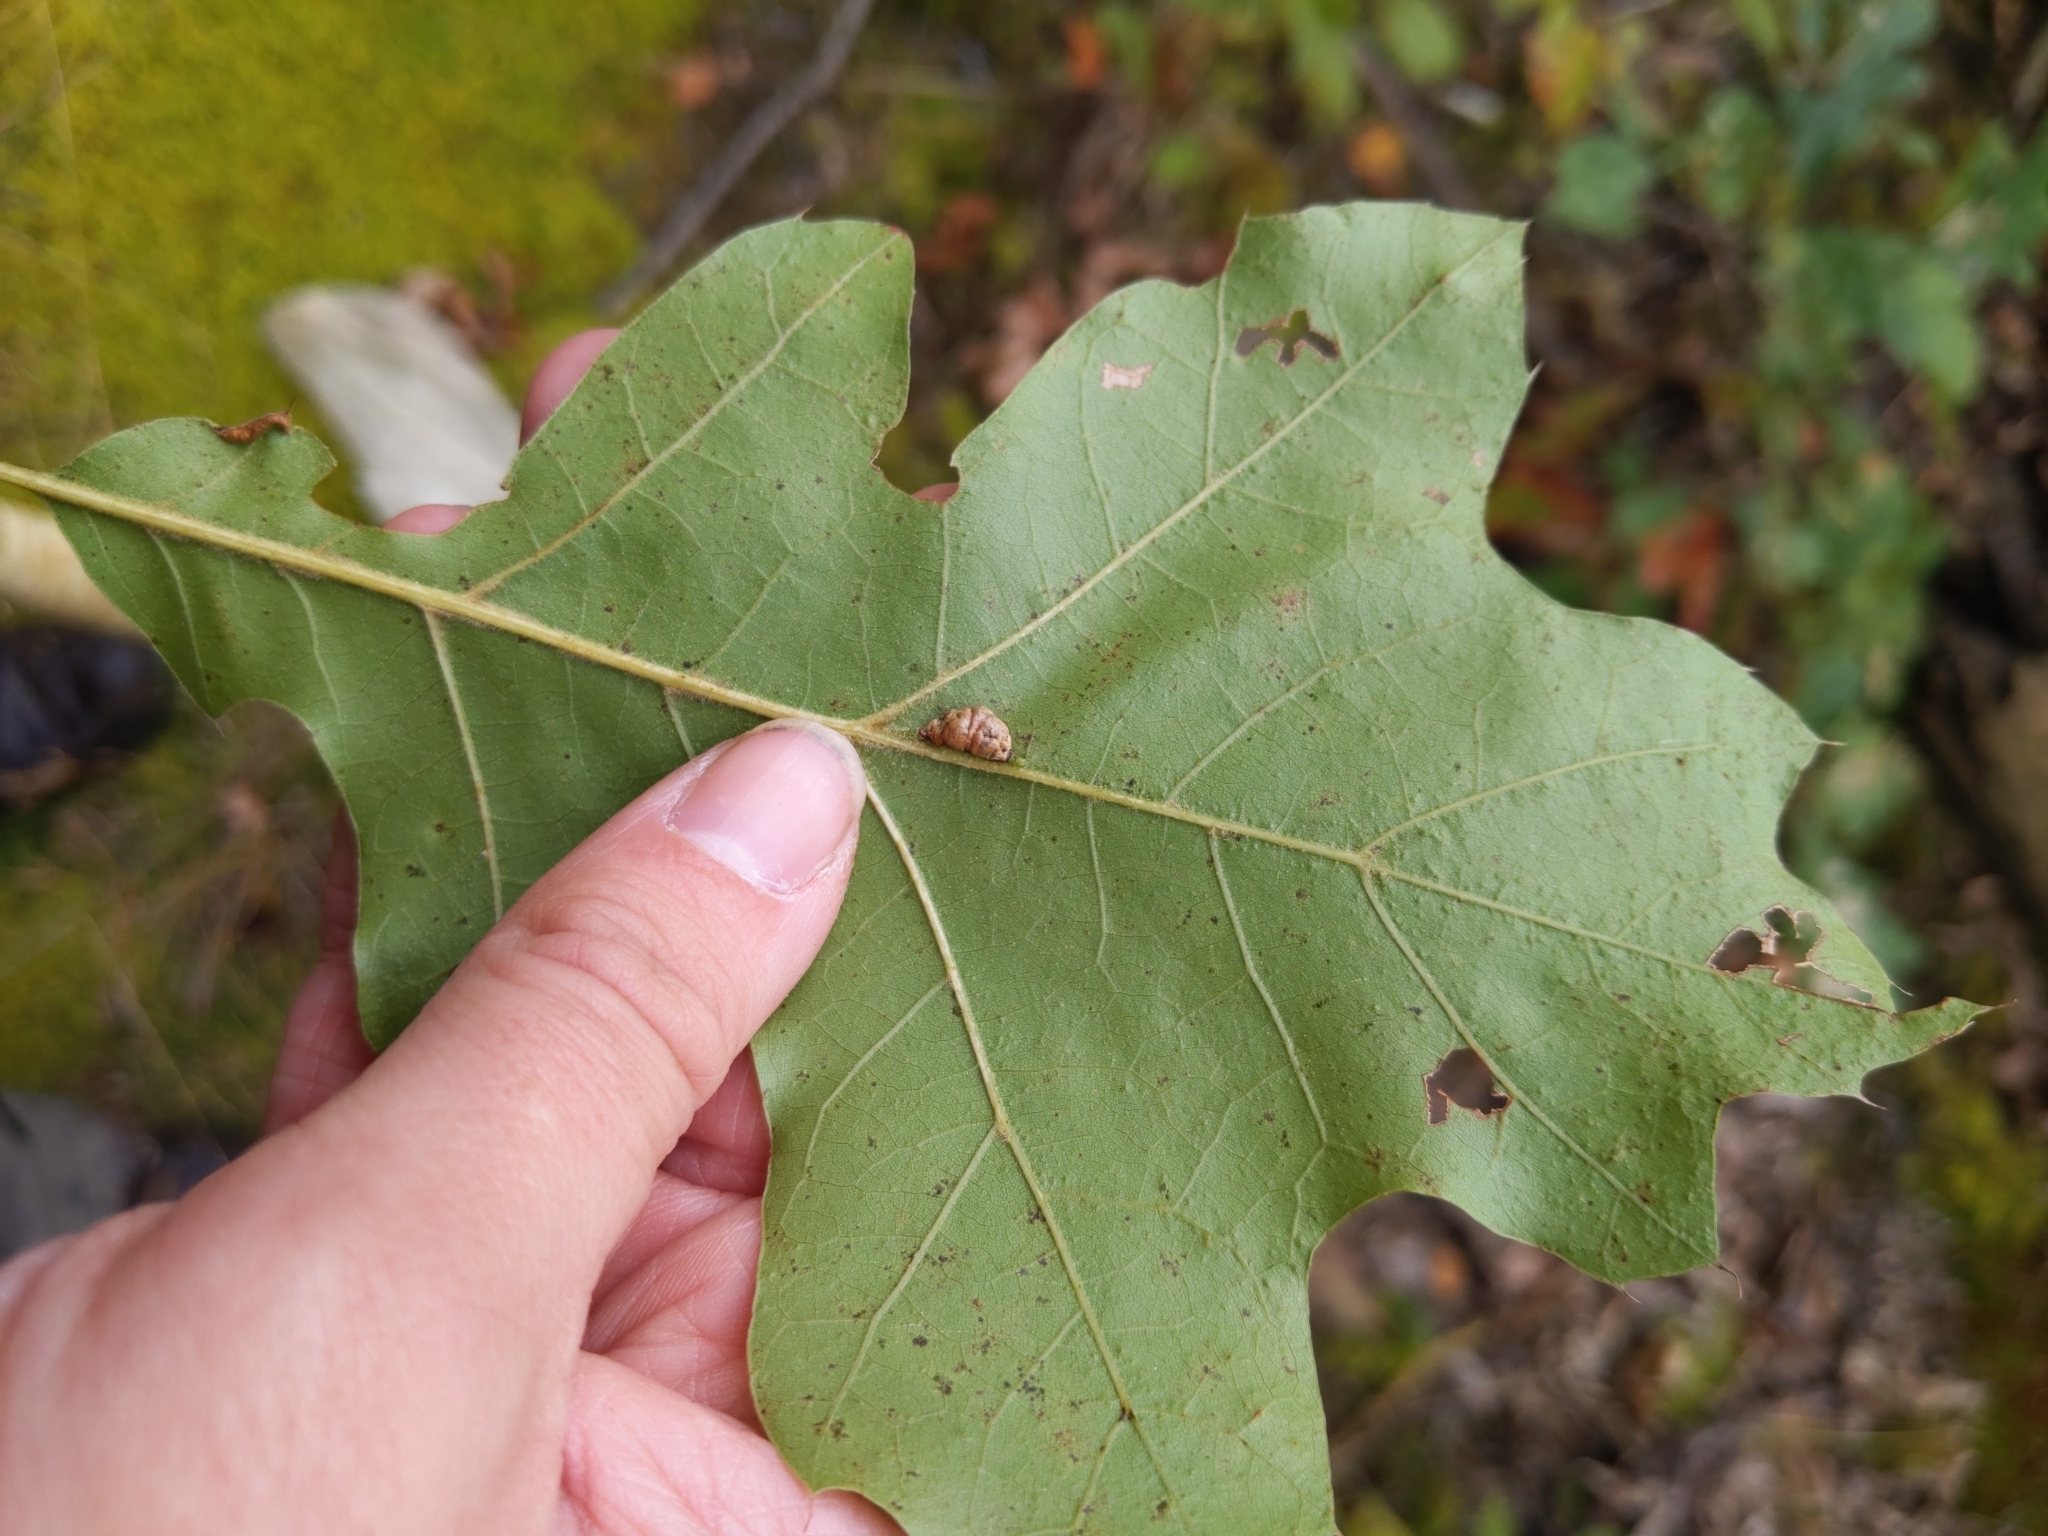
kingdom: Animalia
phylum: Arthropoda
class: Insecta
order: Diptera
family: Cecidomyiidae
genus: Macrodiplosis
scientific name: Macrodiplosis majalis
